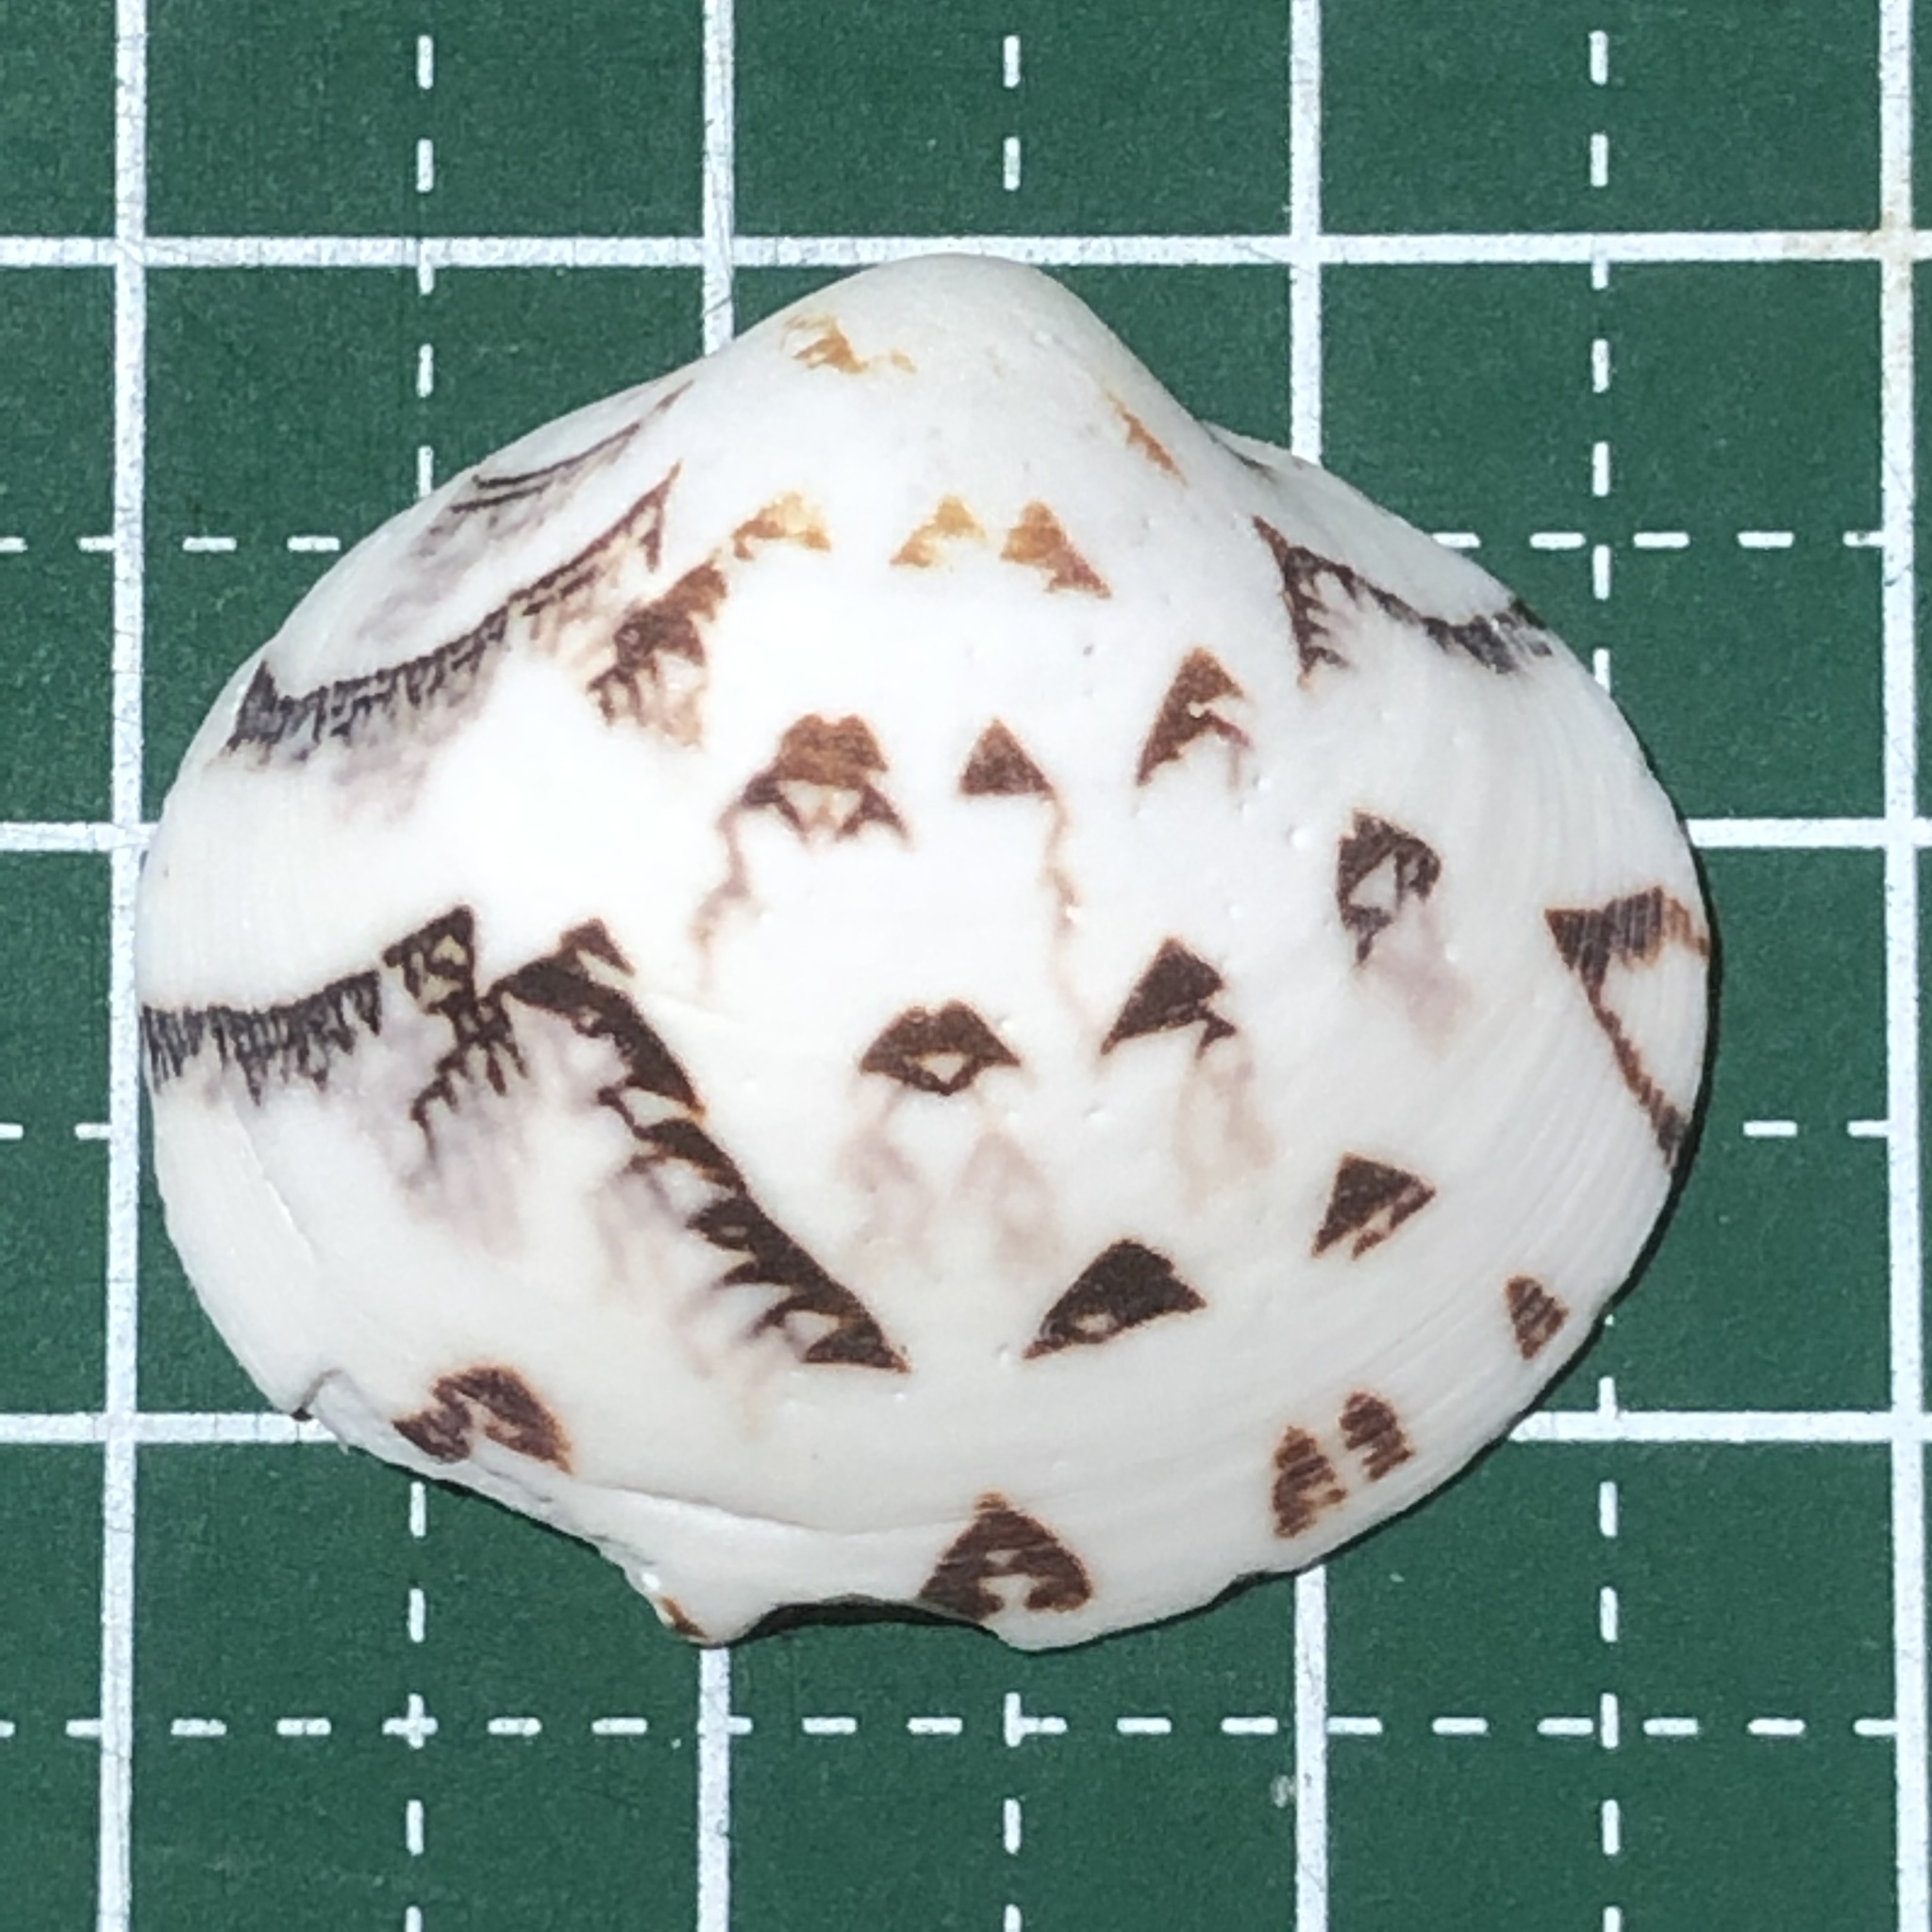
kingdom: Animalia
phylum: Mollusca
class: Bivalvia
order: Venerida
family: Veneridae
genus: Lioconcha
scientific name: Lioconcha castrensis
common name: Camp pitar-venus
